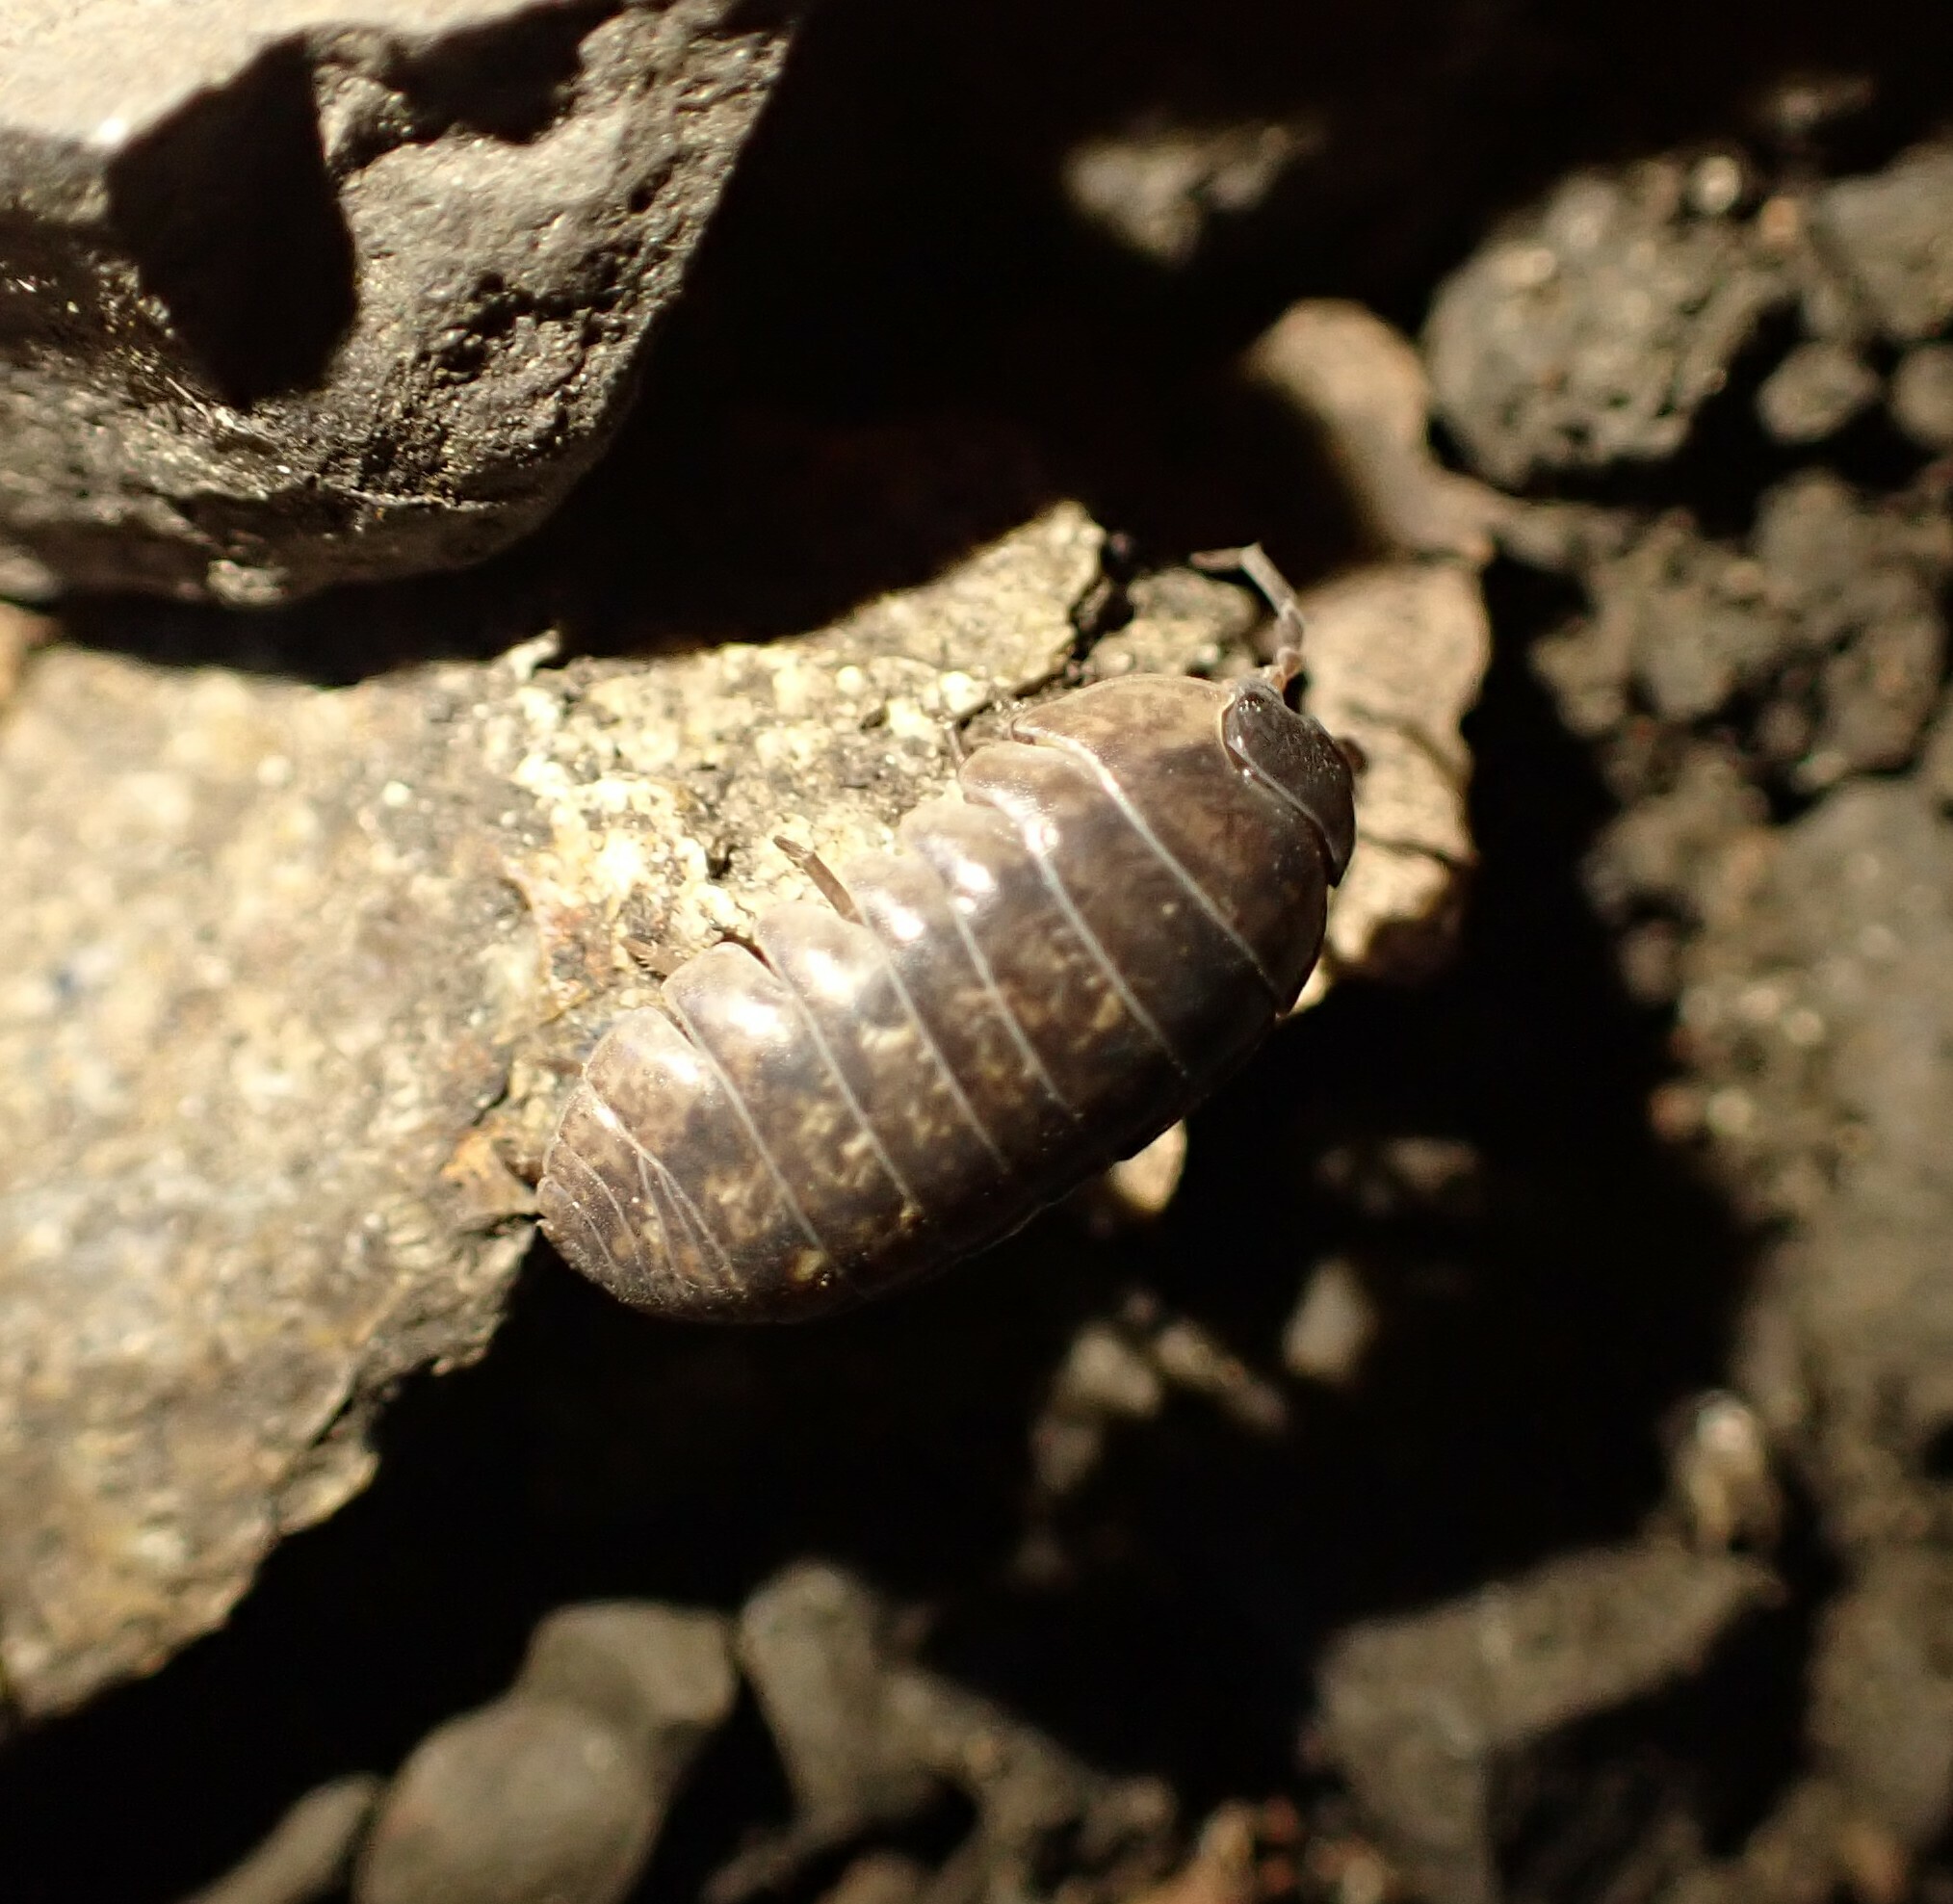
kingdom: Animalia
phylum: Arthropoda
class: Malacostraca
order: Isopoda
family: Armadillidiidae
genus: Armadillidium
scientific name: Armadillidium vulgare
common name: Common pill woodlouse
